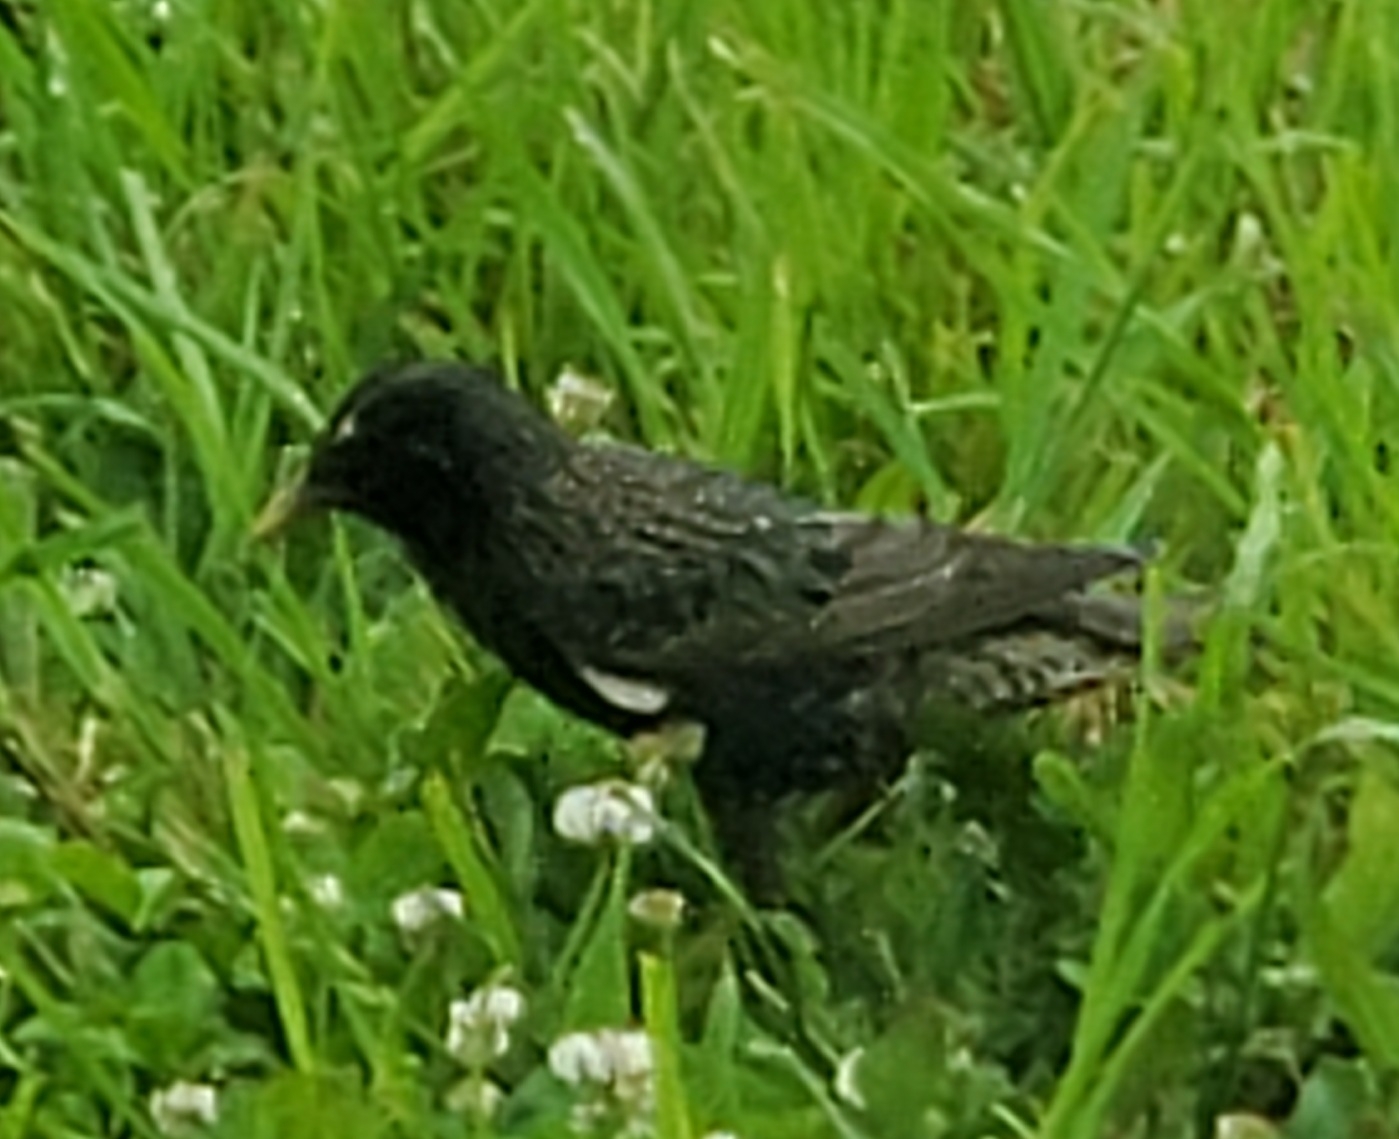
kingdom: Animalia
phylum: Chordata
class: Aves
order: Passeriformes
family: Sturnidae
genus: Sturnus
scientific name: Sturnus vulgaris
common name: Common starling
